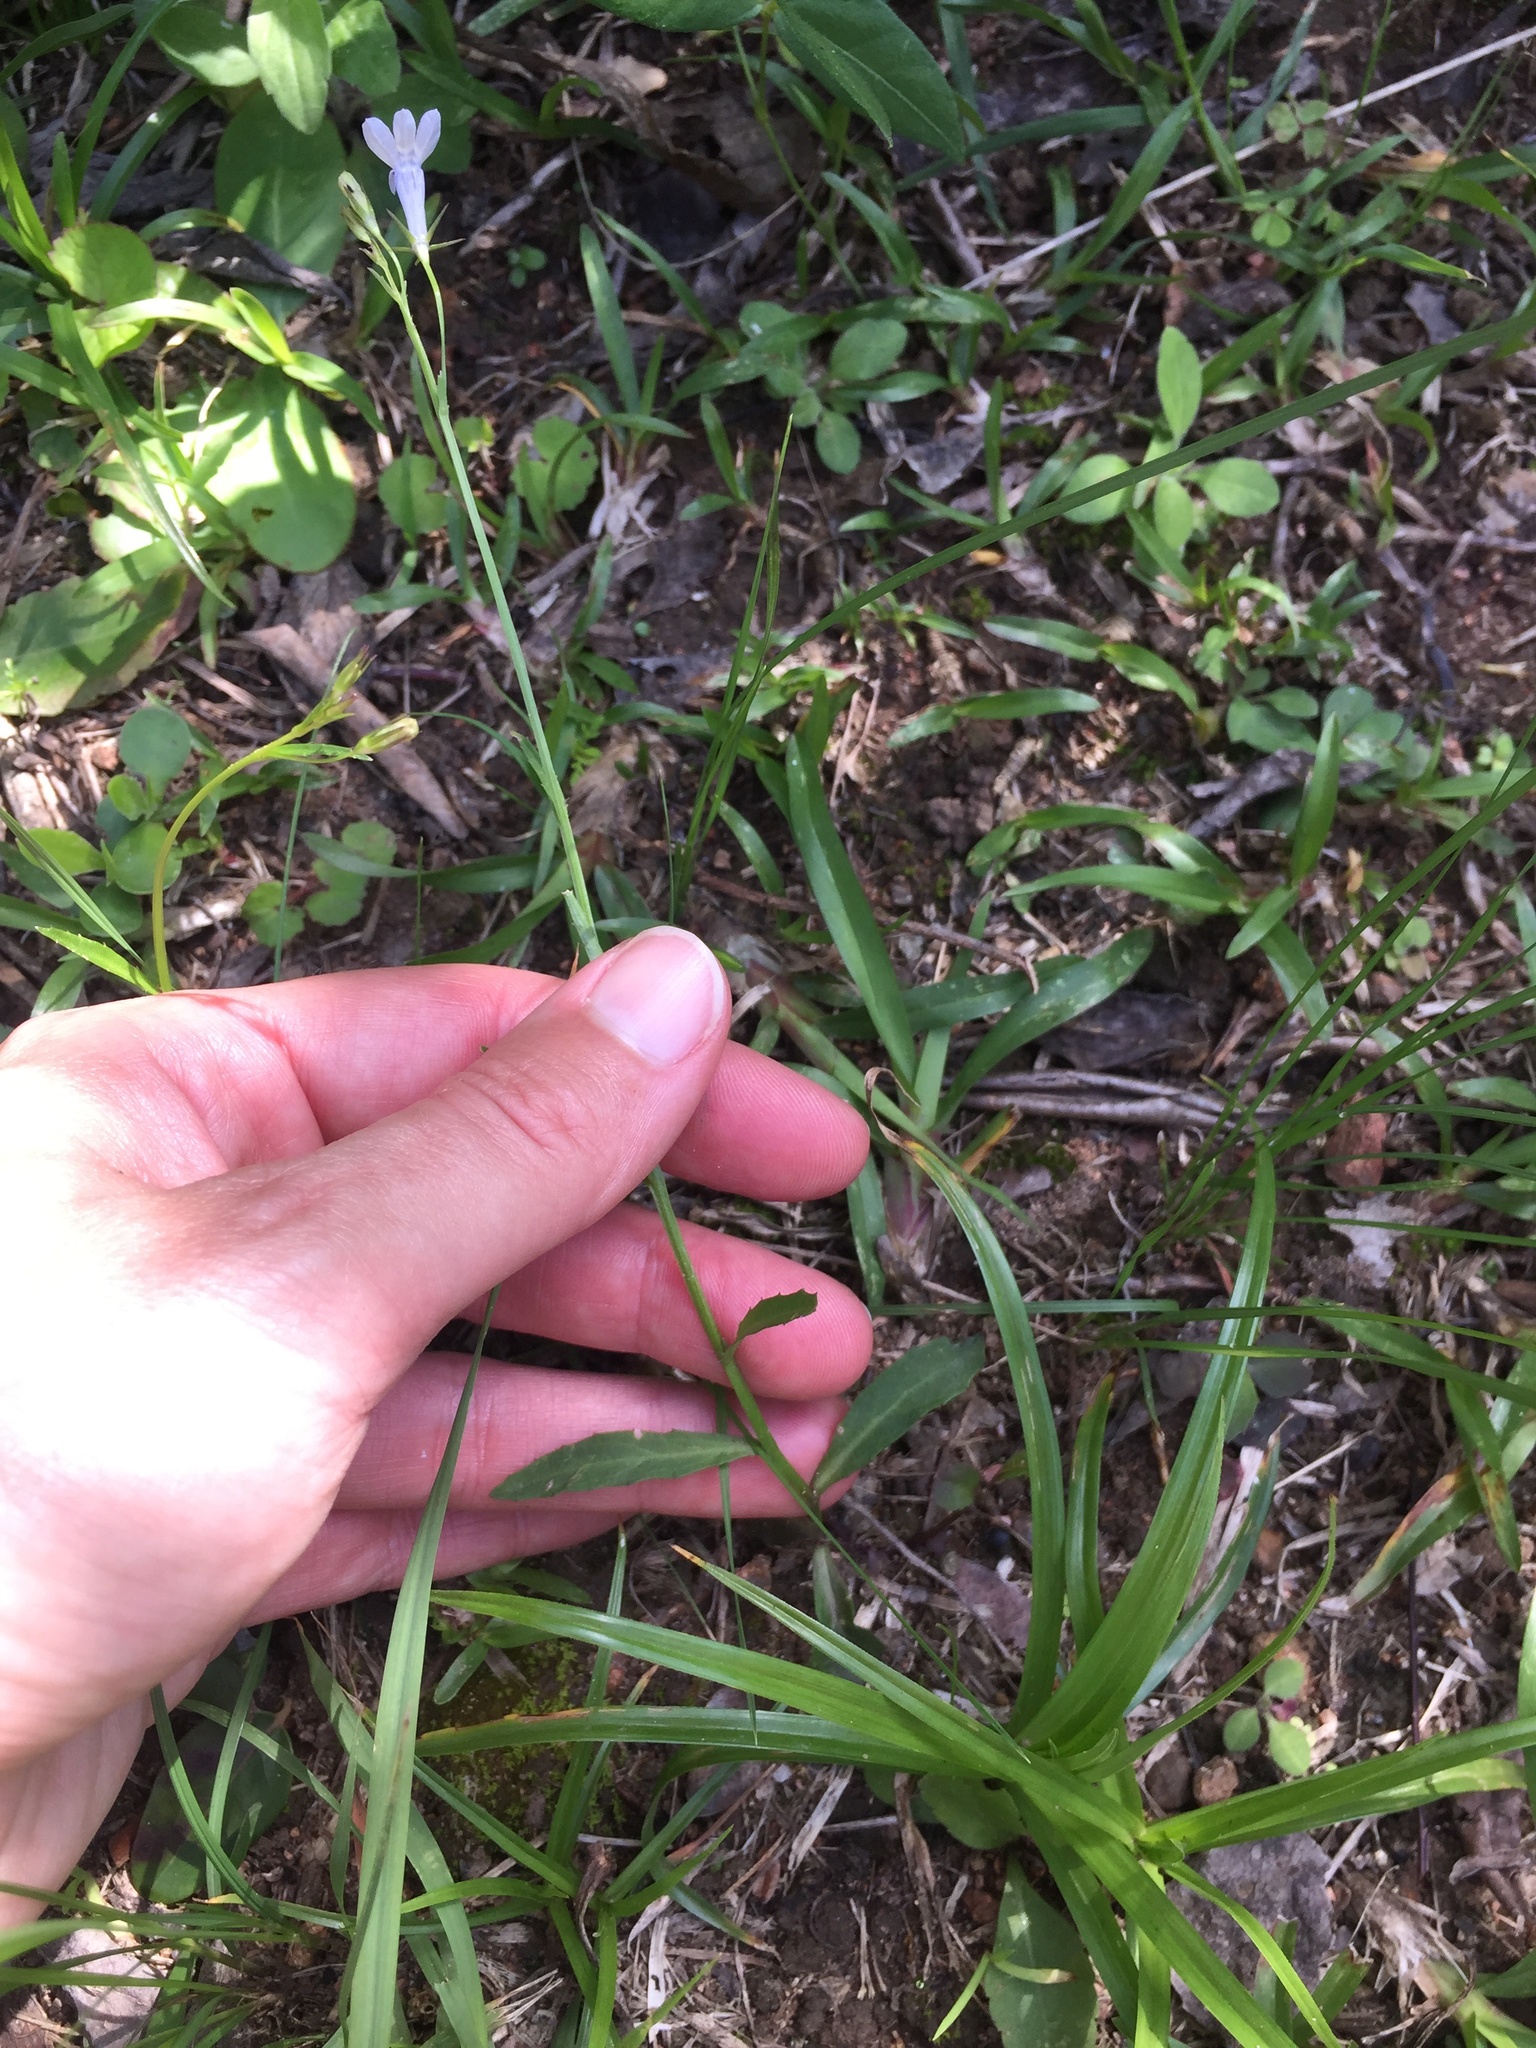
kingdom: Plantae
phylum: Tracheophyta
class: Magnoliopsida
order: Asterales
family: Campanulaceae
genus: Lobelia
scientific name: Lobelia flaccida
